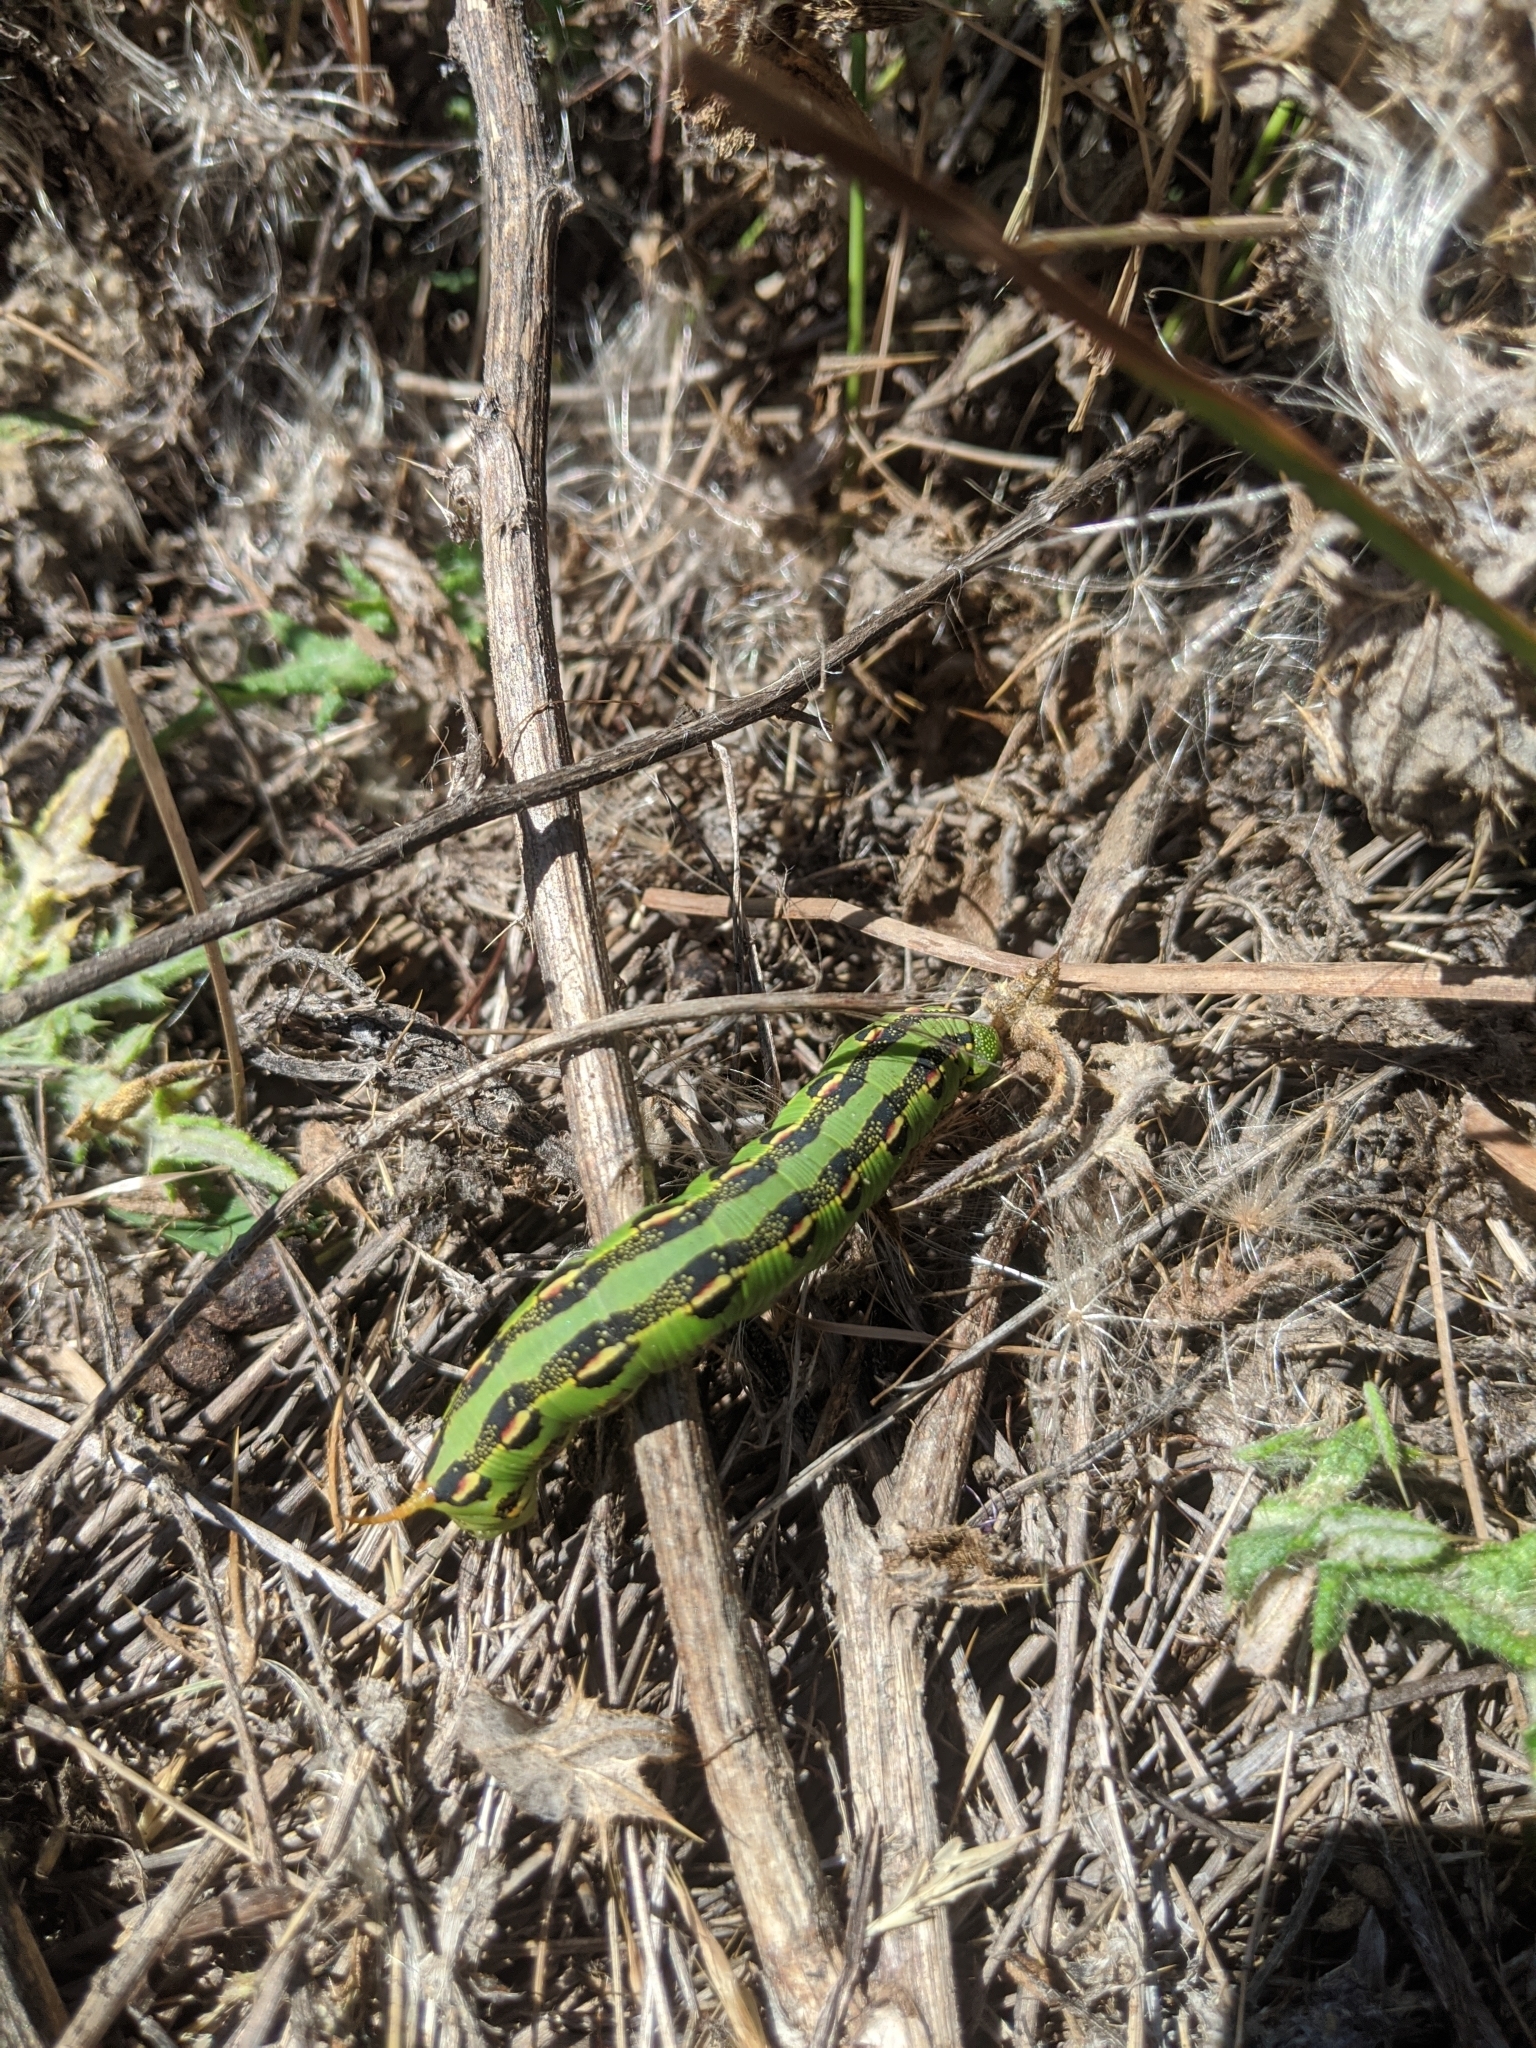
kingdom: Animalia
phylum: Arthropoda
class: Insecta
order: Lepidoptera
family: Sphingidae
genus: Hyles
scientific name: Hyles lineata
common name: White-lined sphinx
